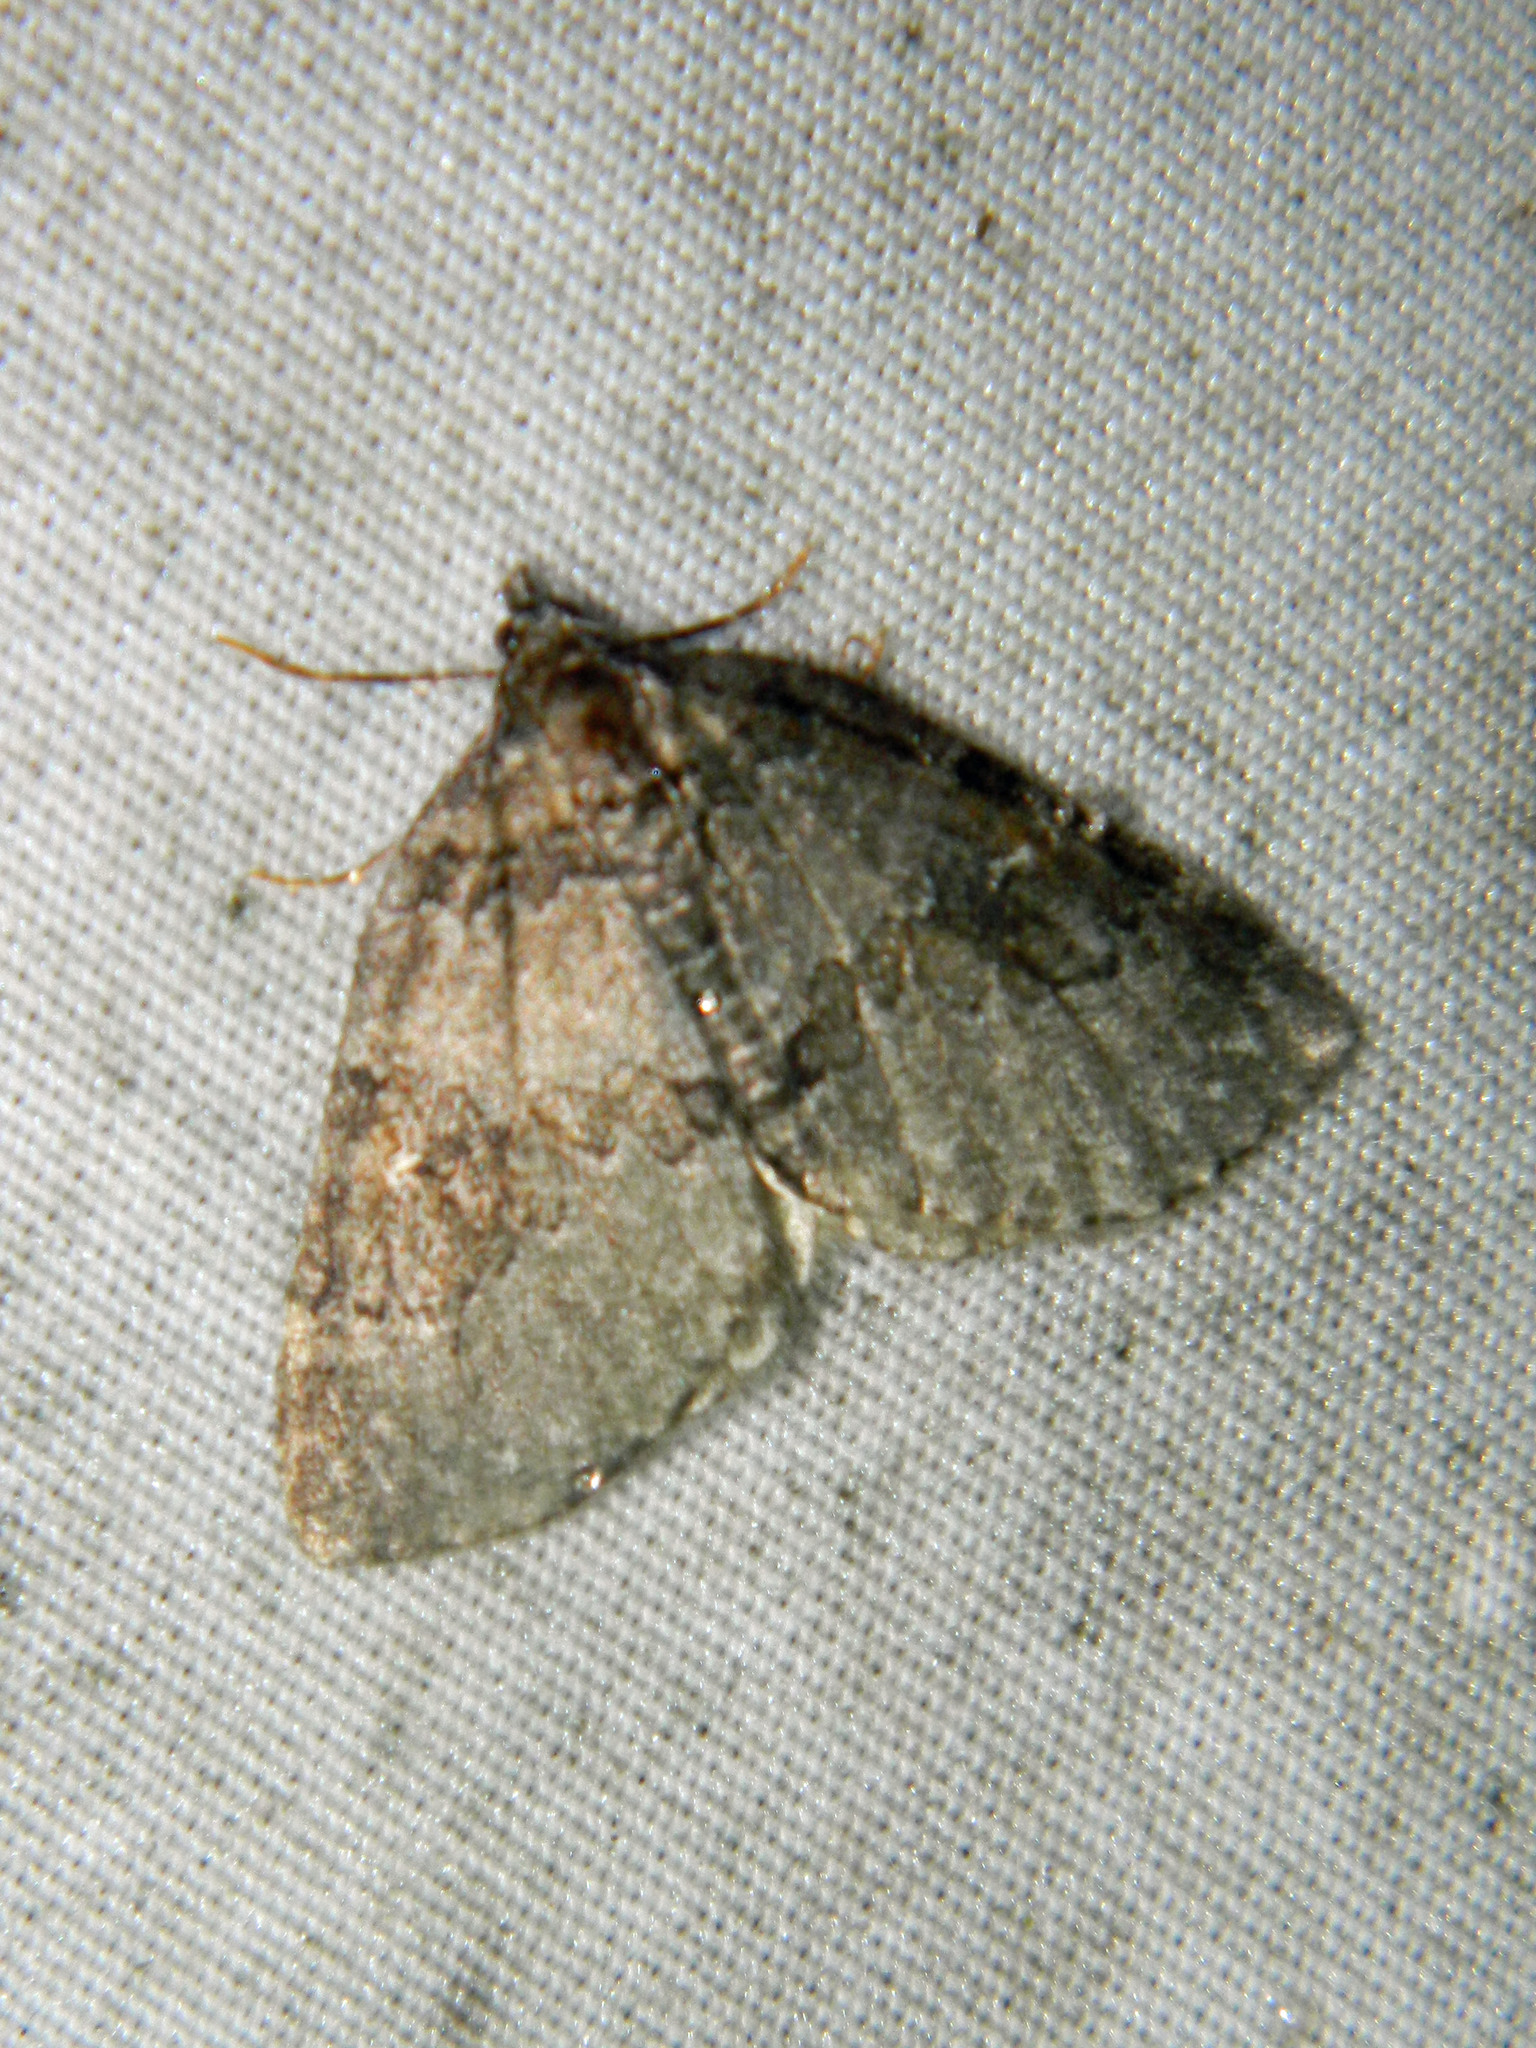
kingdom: Animalia
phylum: Arthropoda
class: Insecta
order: Lepidoptera
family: Geometridae
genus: Plemyria
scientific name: Plemyria georgii
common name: George's carpet moth
